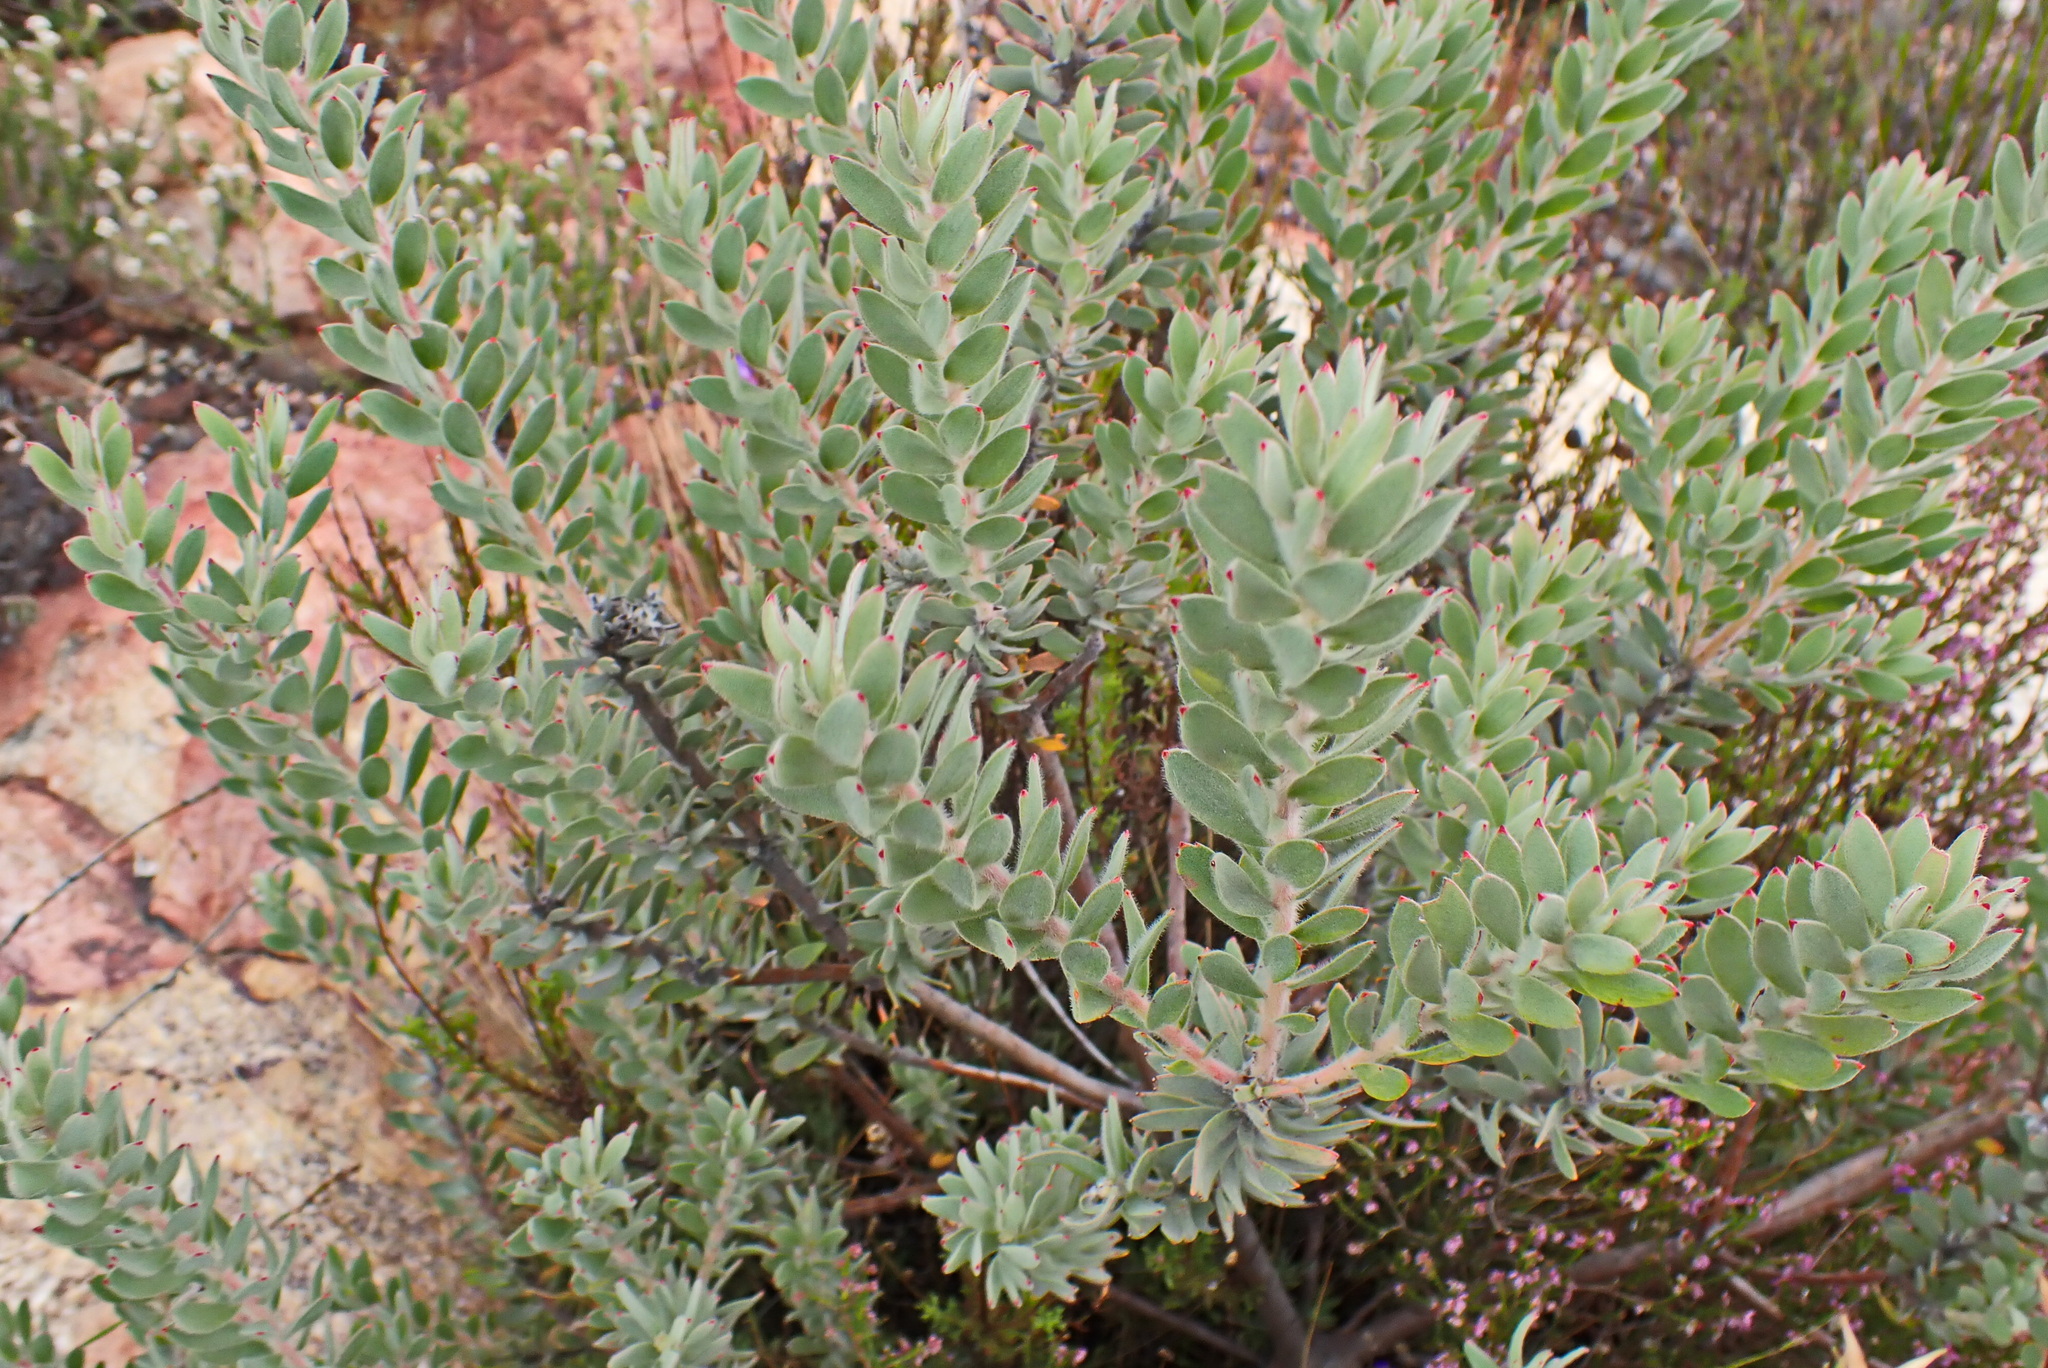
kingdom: Plantae
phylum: Tracheophyta
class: Magnoliopsida
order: Proteales
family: Proteaceae
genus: Leucadendron
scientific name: Leucadendron rubrum
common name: Spinning top
